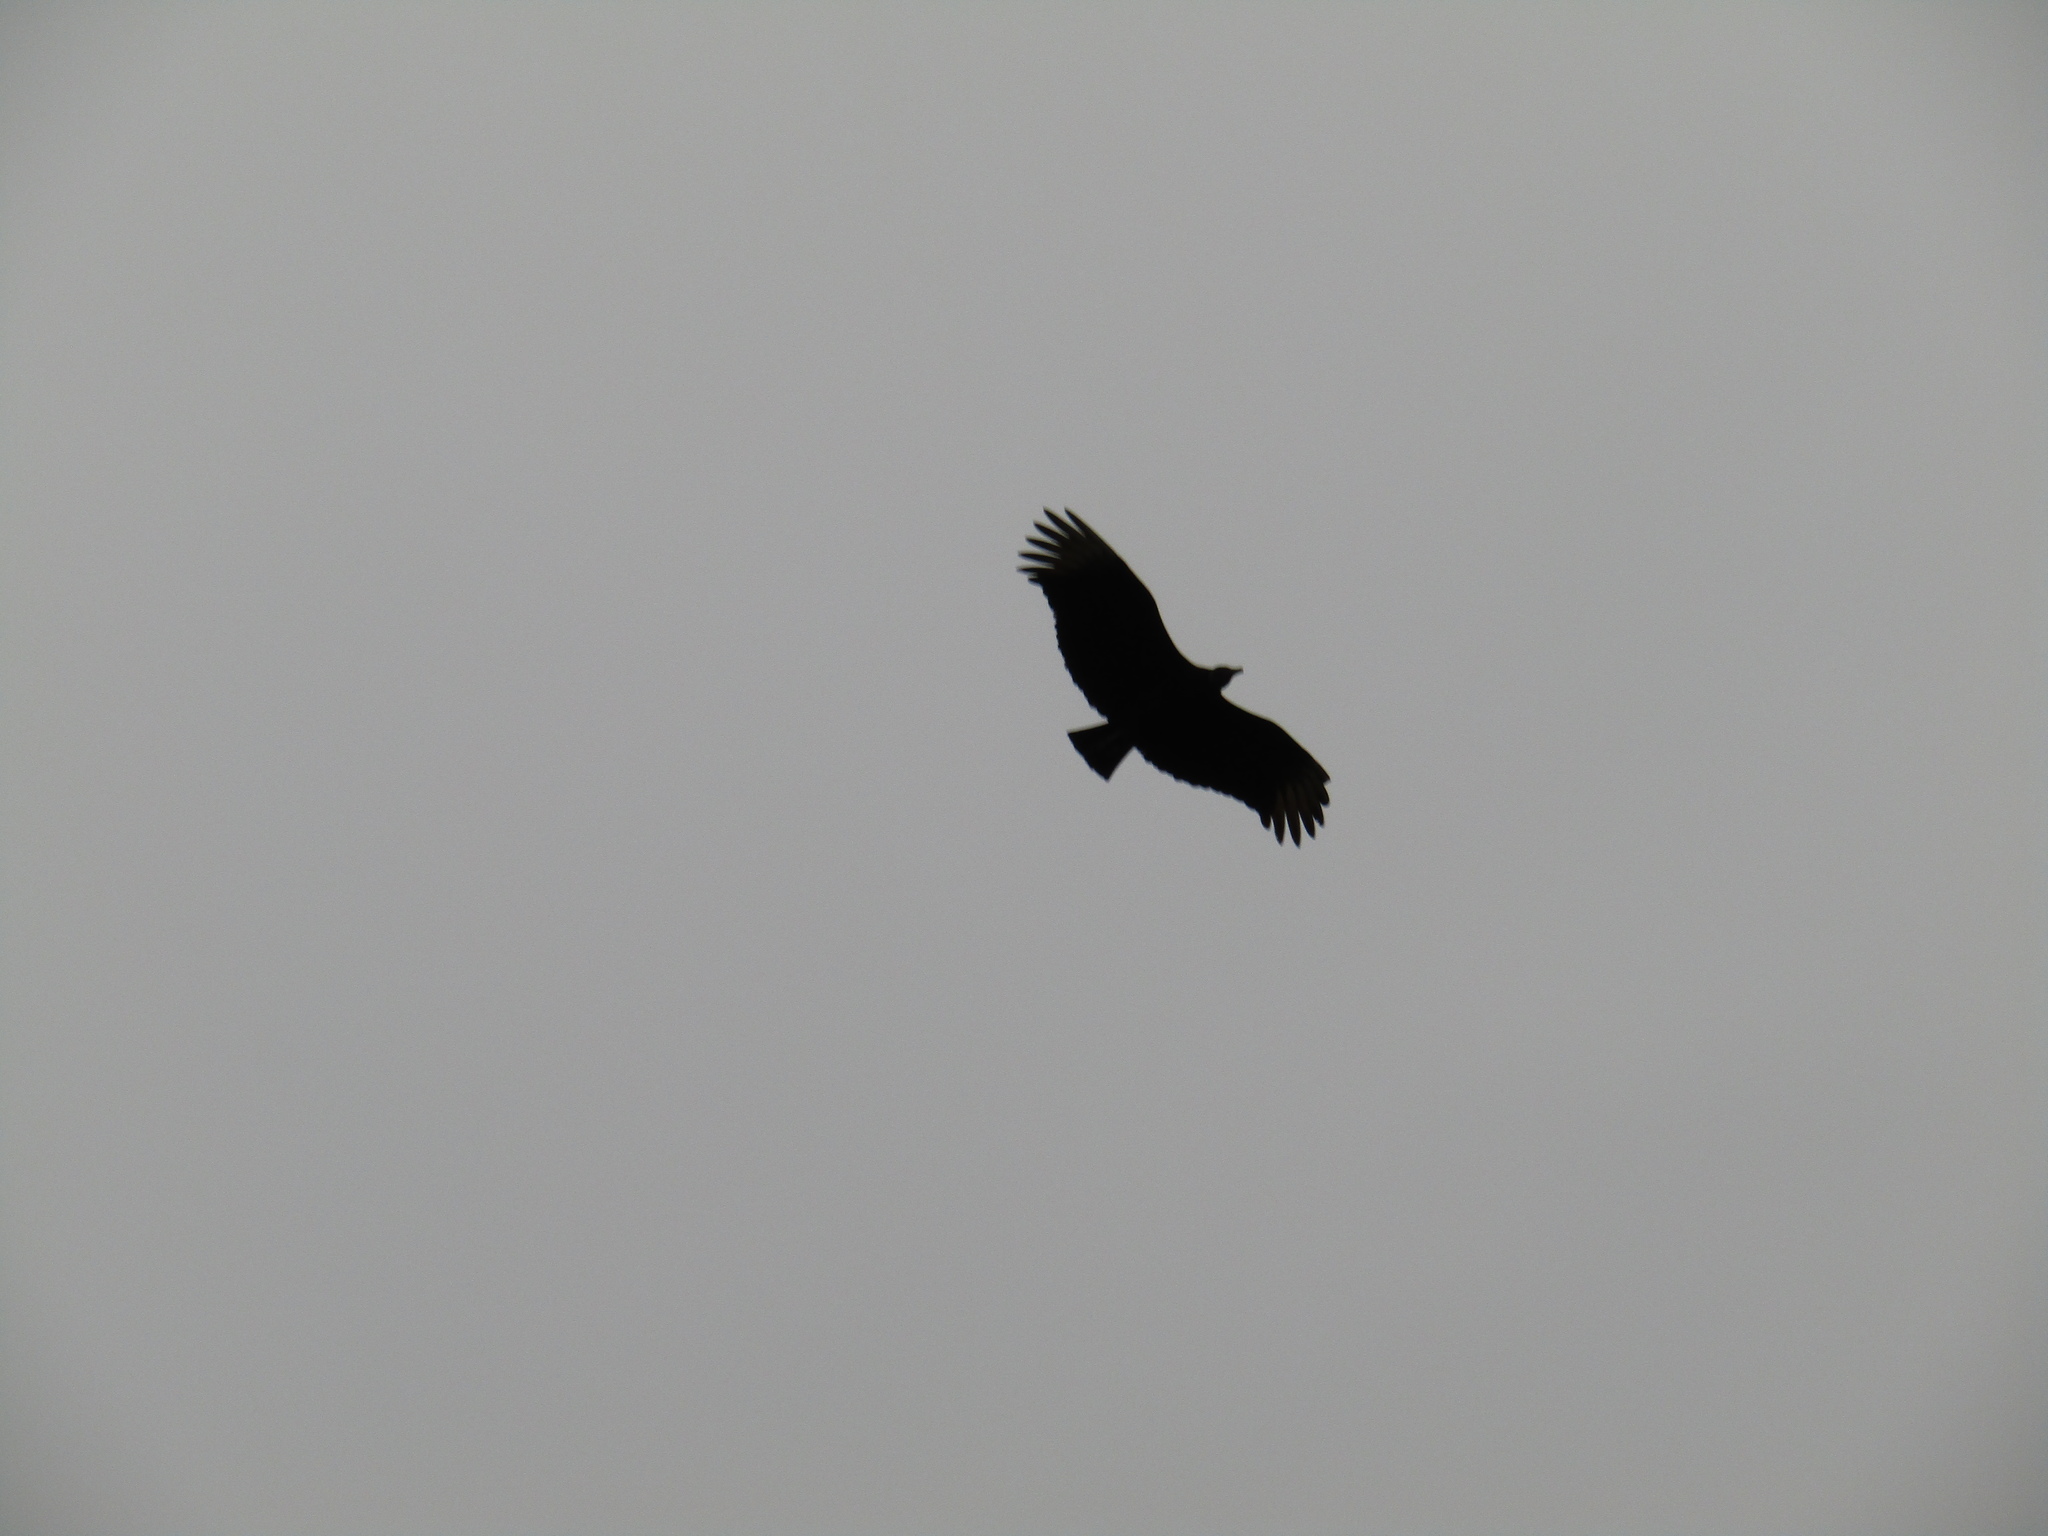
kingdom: Animalia
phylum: Chordata
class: Aves
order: Accipitriformes
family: Cathartidae
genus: Coragyps
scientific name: Coragyps atratus
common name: Black vulture
